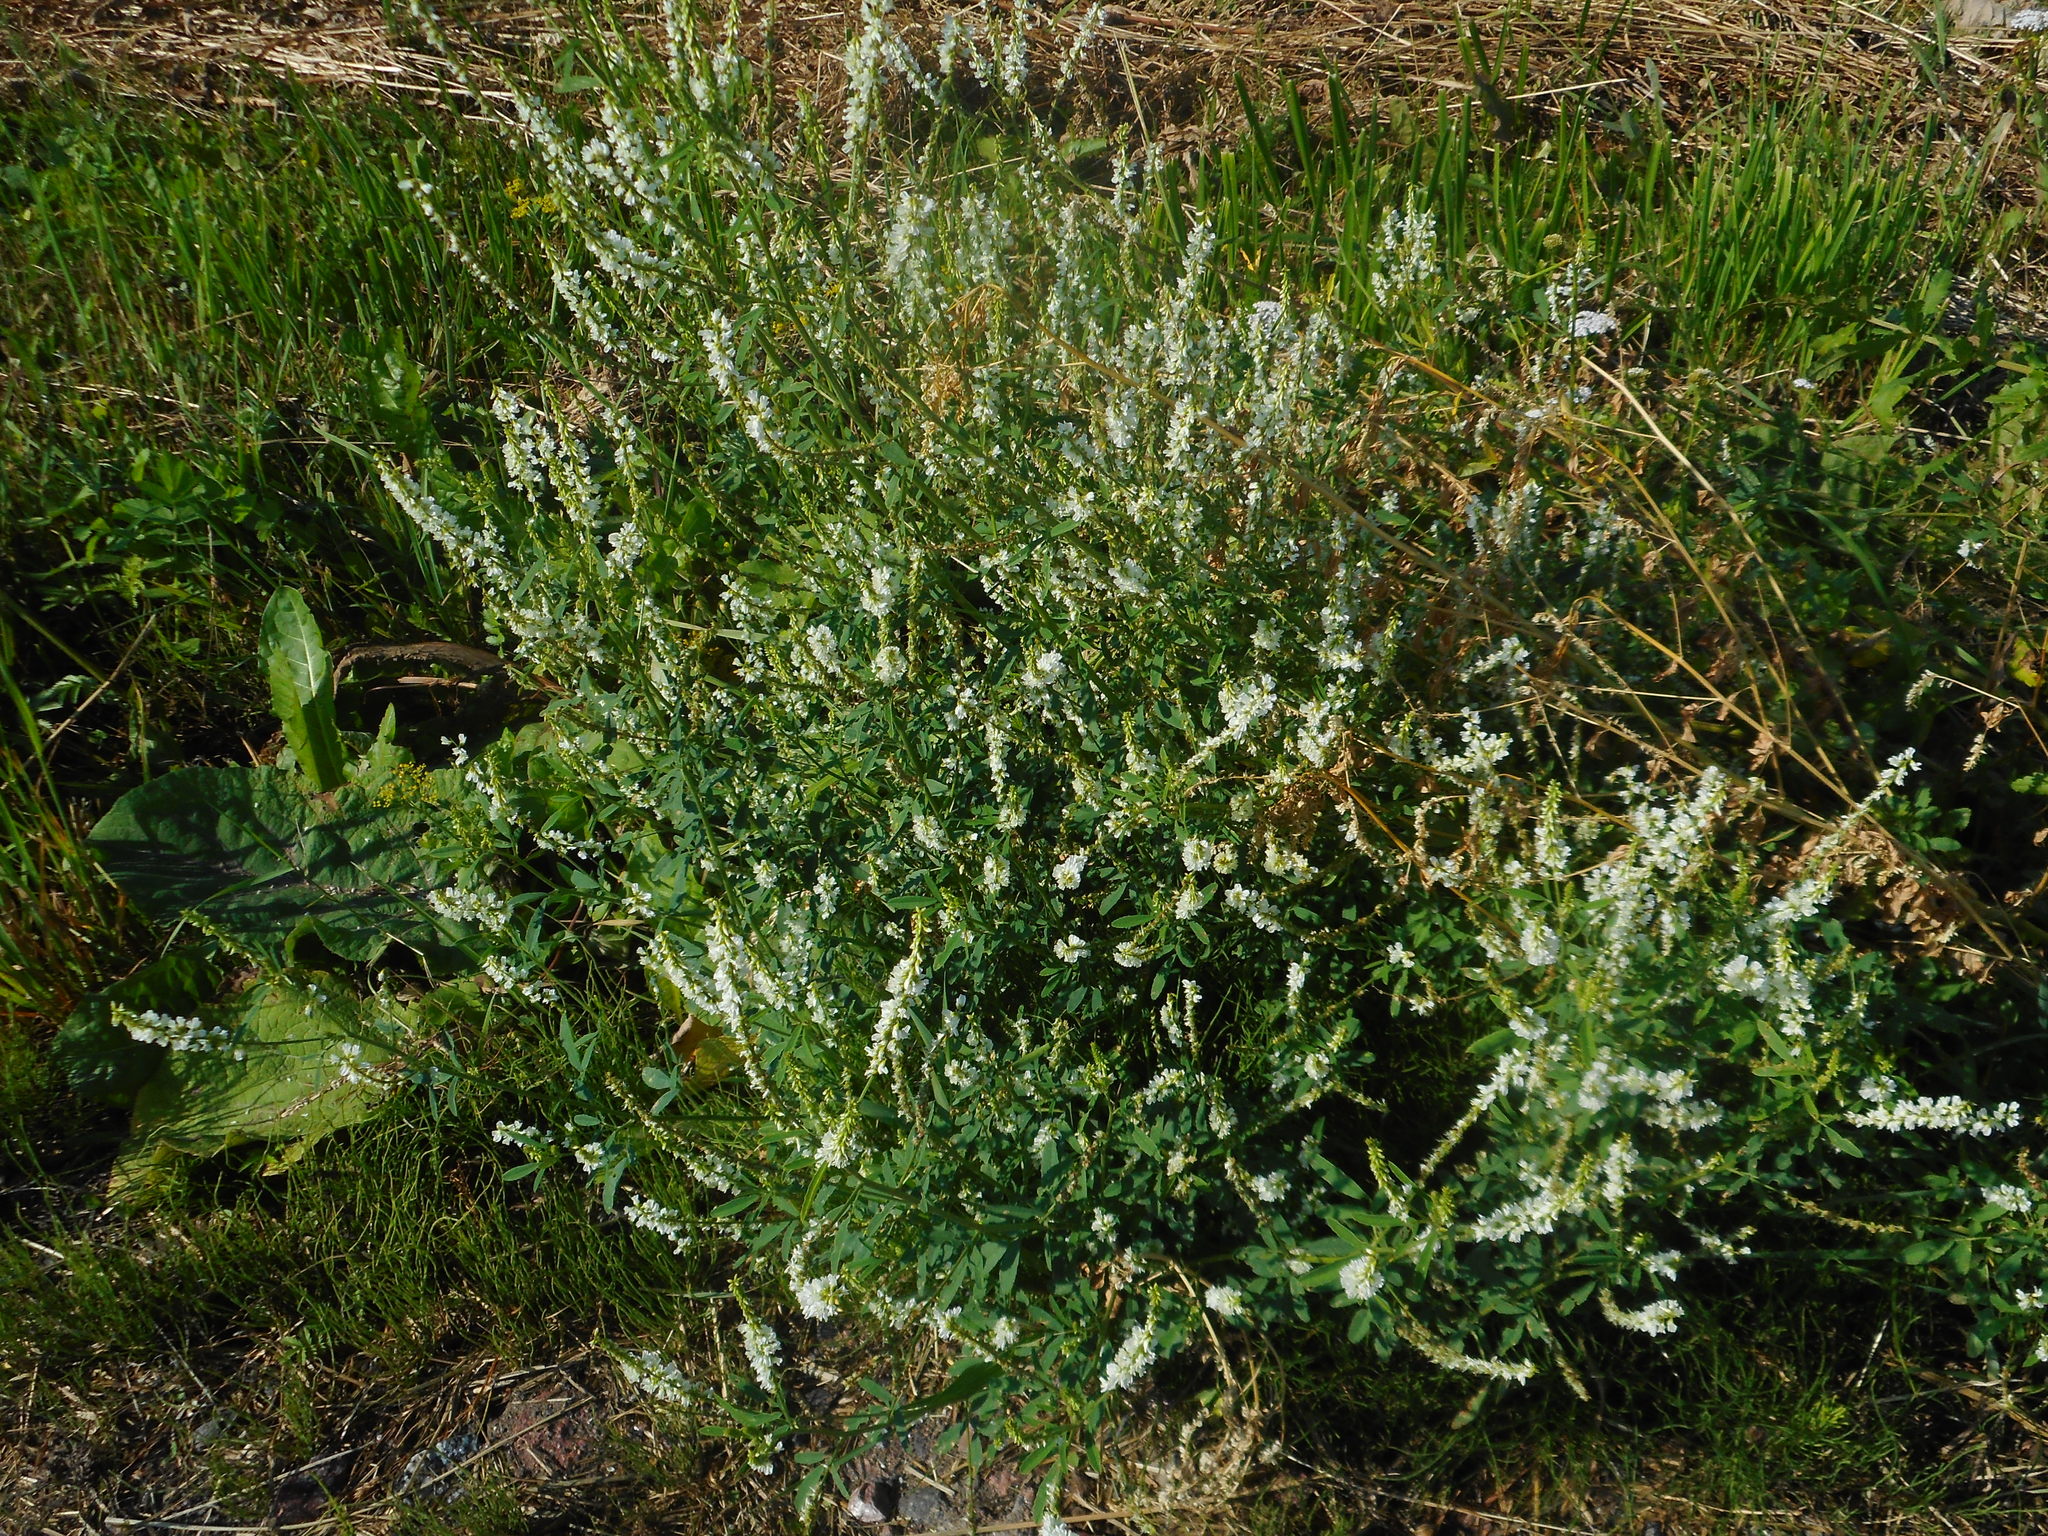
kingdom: Plantae
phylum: Tracheophyta
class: Magnoliopsida
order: Fabales
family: Fabaceae
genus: Melilotus
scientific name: Melilotus albus
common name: White melilot
